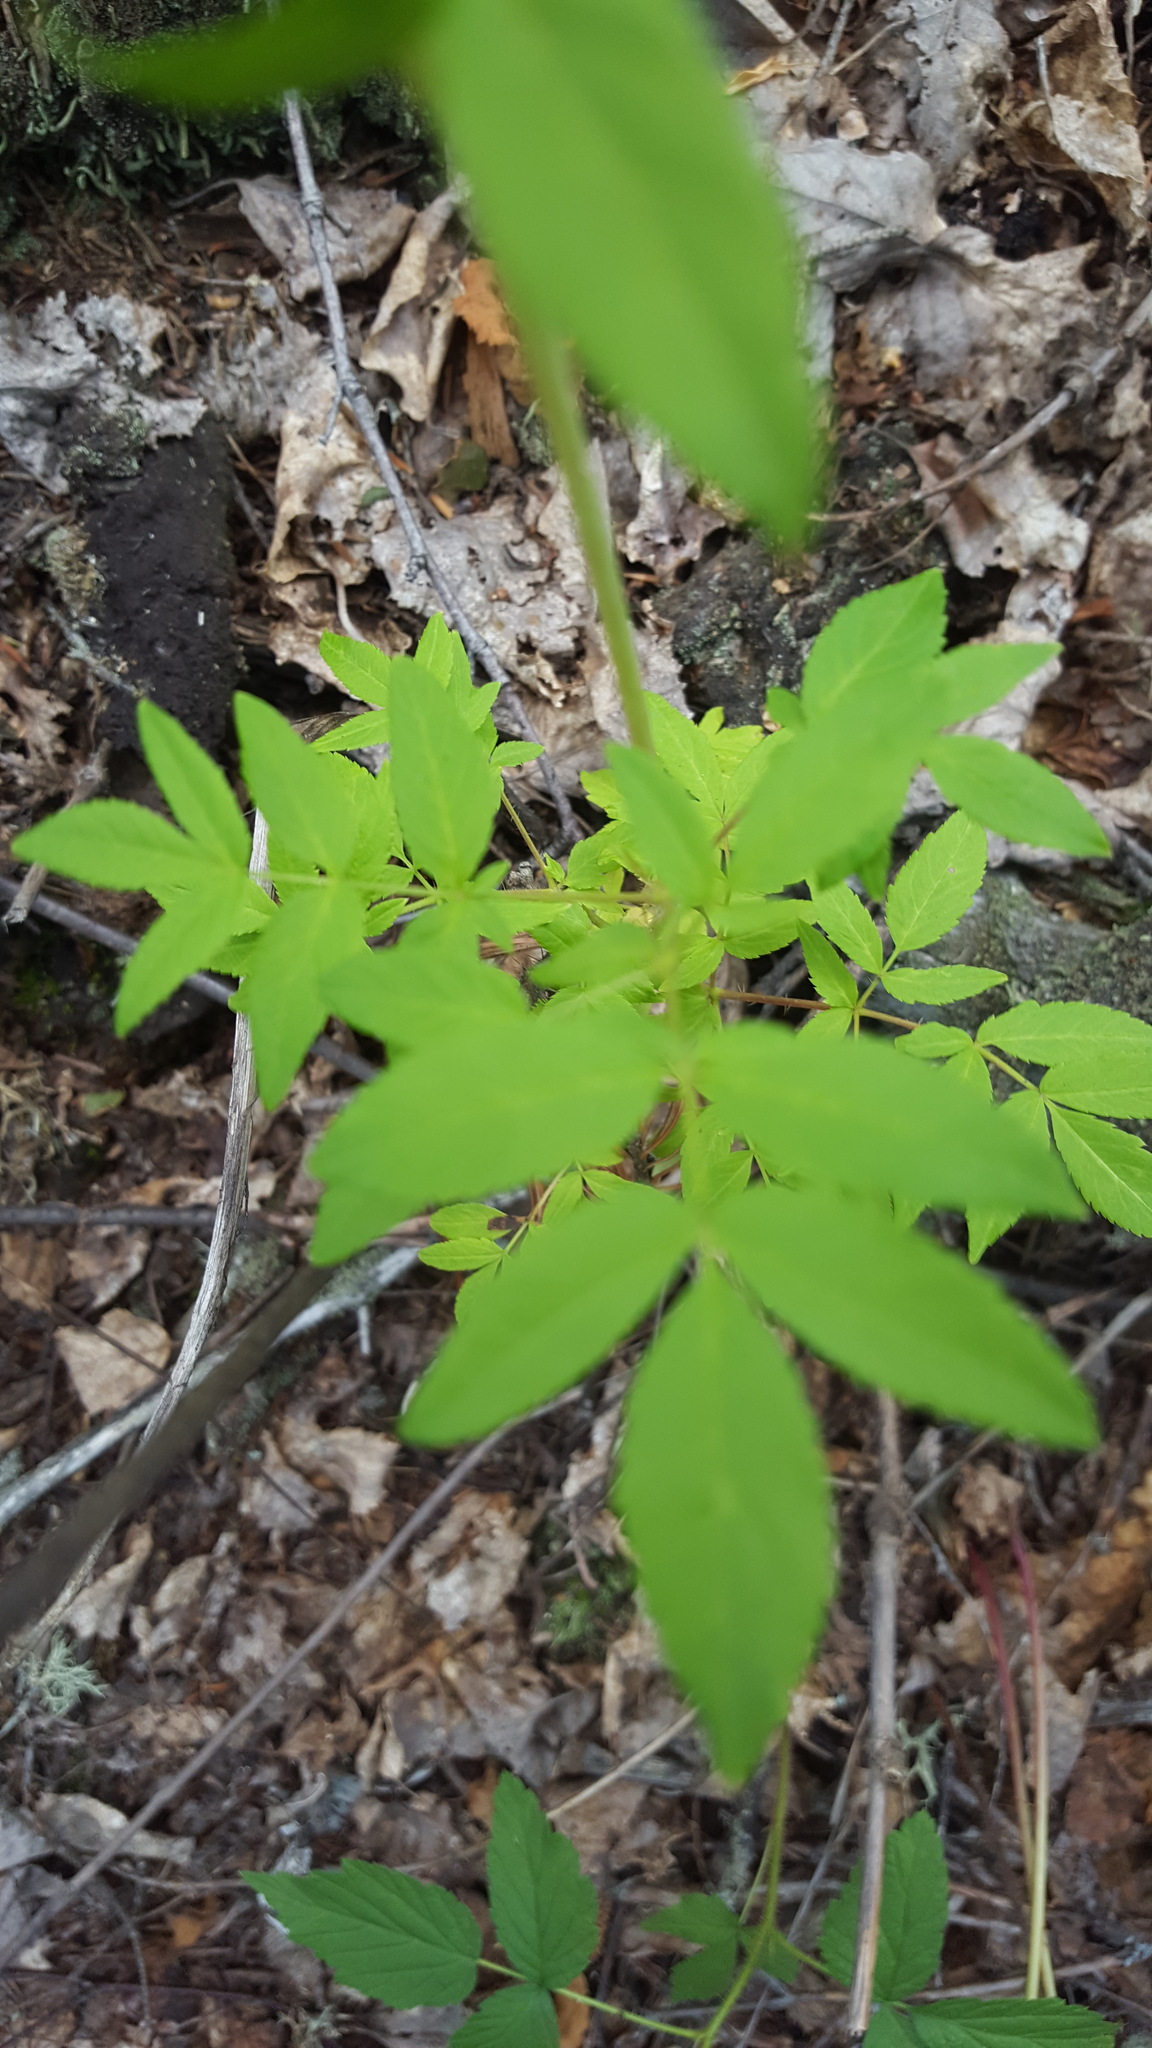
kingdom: Plantae
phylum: Tracheophyta
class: Magnoliopsida
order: Apiales
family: Araliaceae
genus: Aralia
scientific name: Aralia hispida
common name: Bristly sarsaparilla
